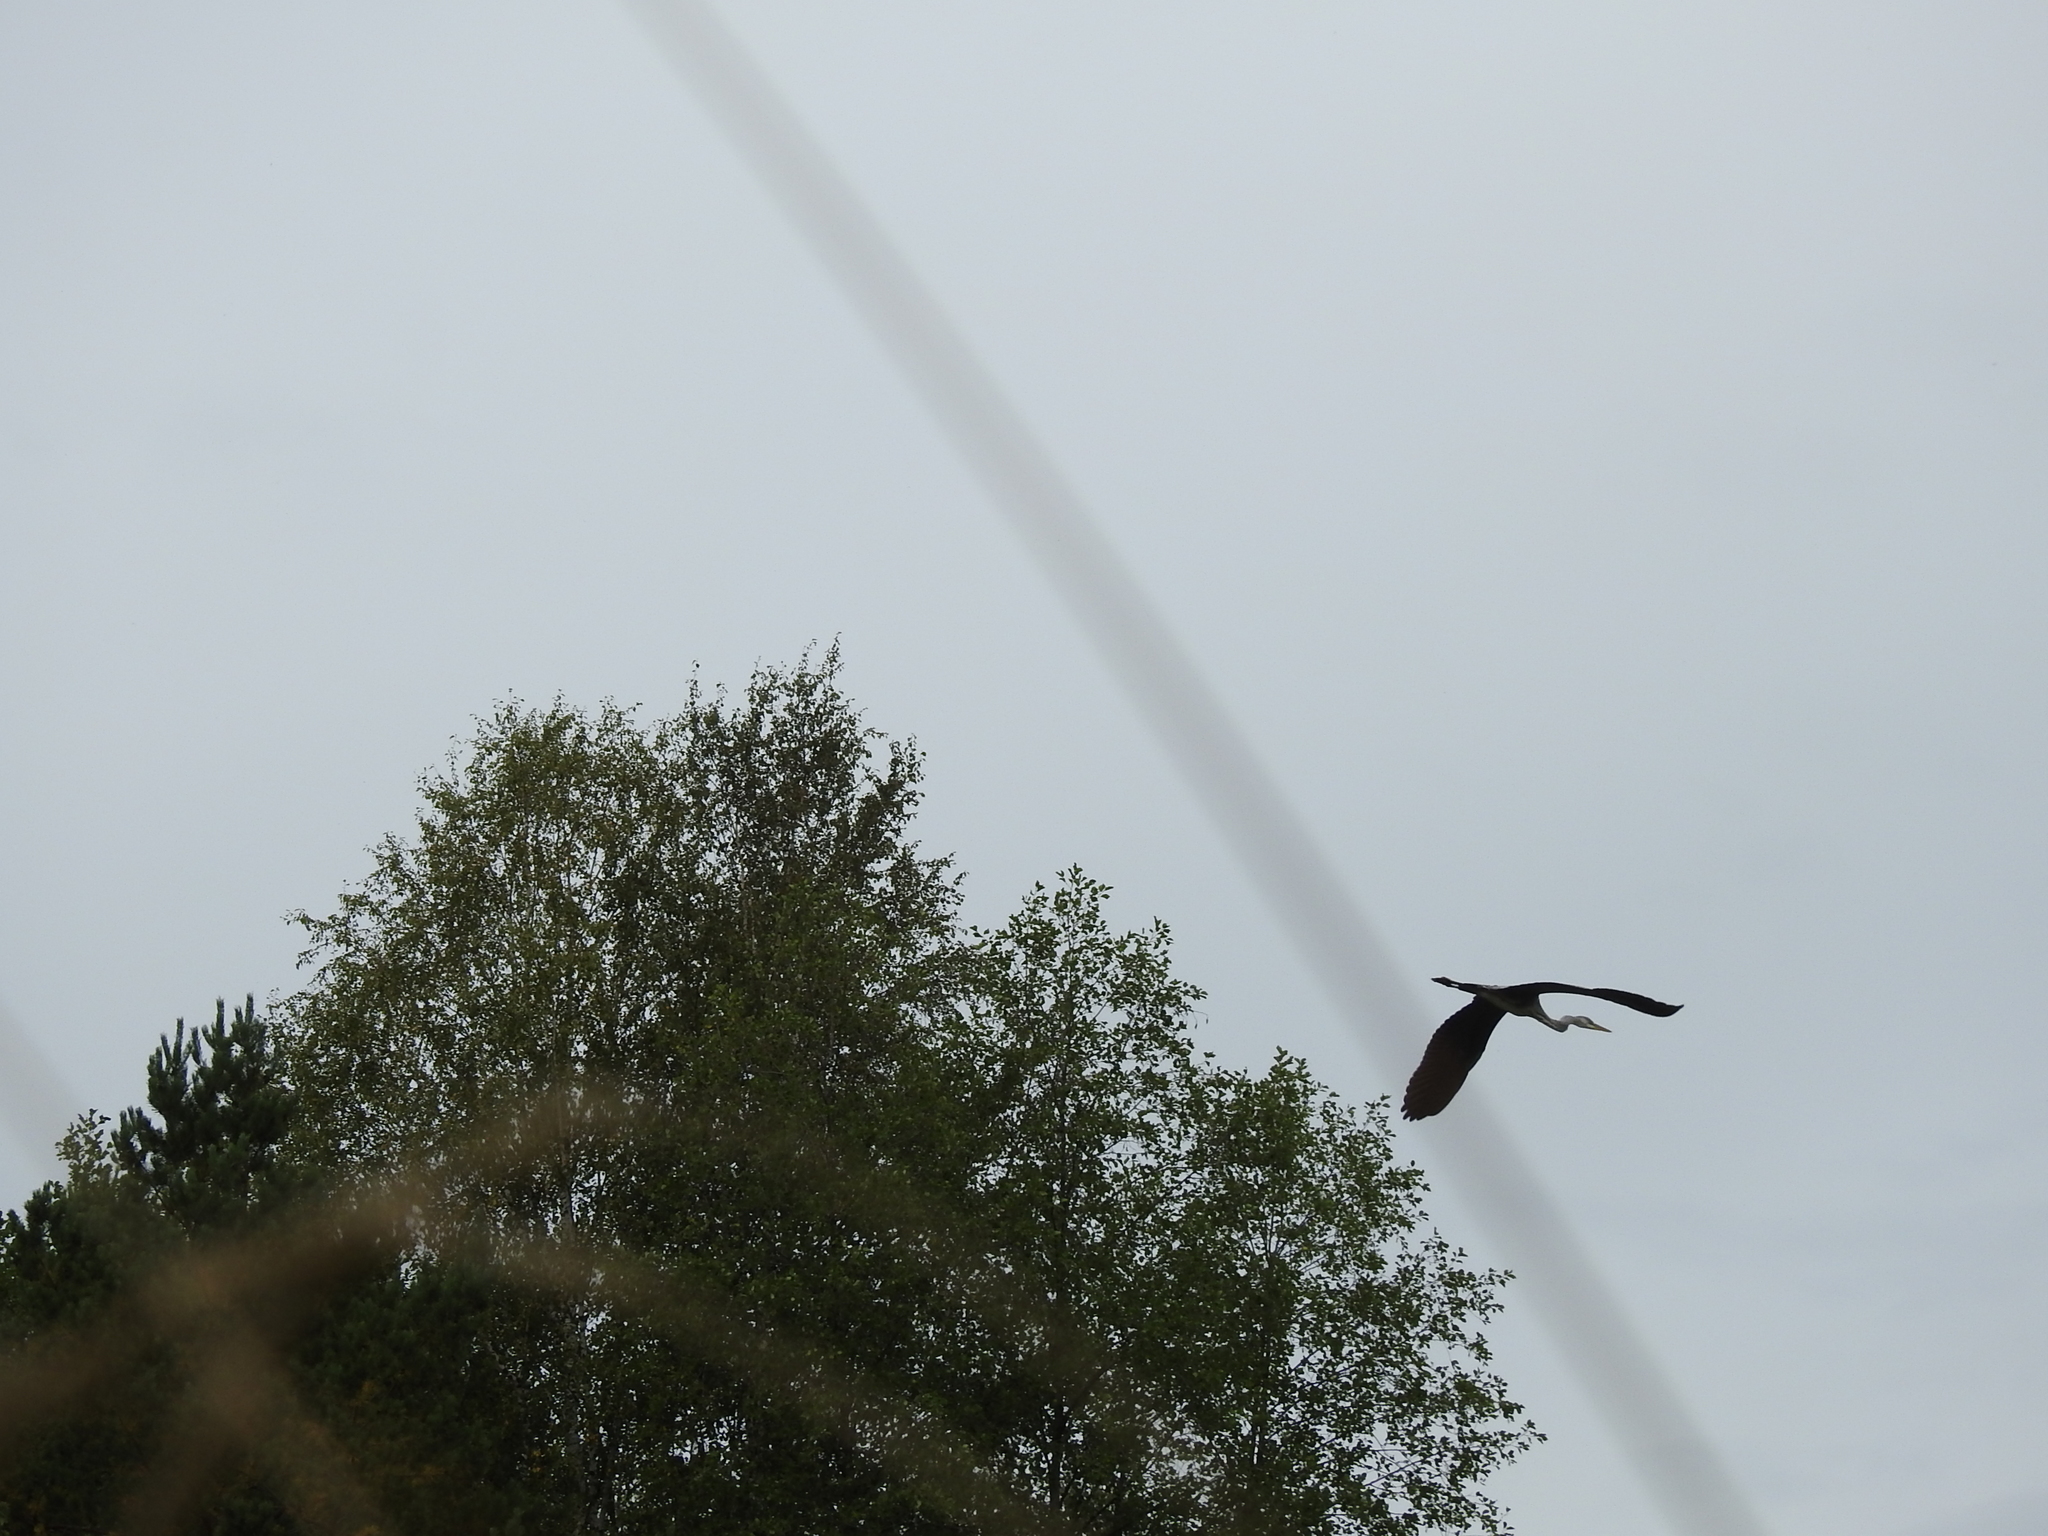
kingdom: Animalia
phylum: Chordata
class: Aves
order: Pelecaniformes
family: Ardeidae
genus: Ardea
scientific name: Ardea cinerea
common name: Grey heron
